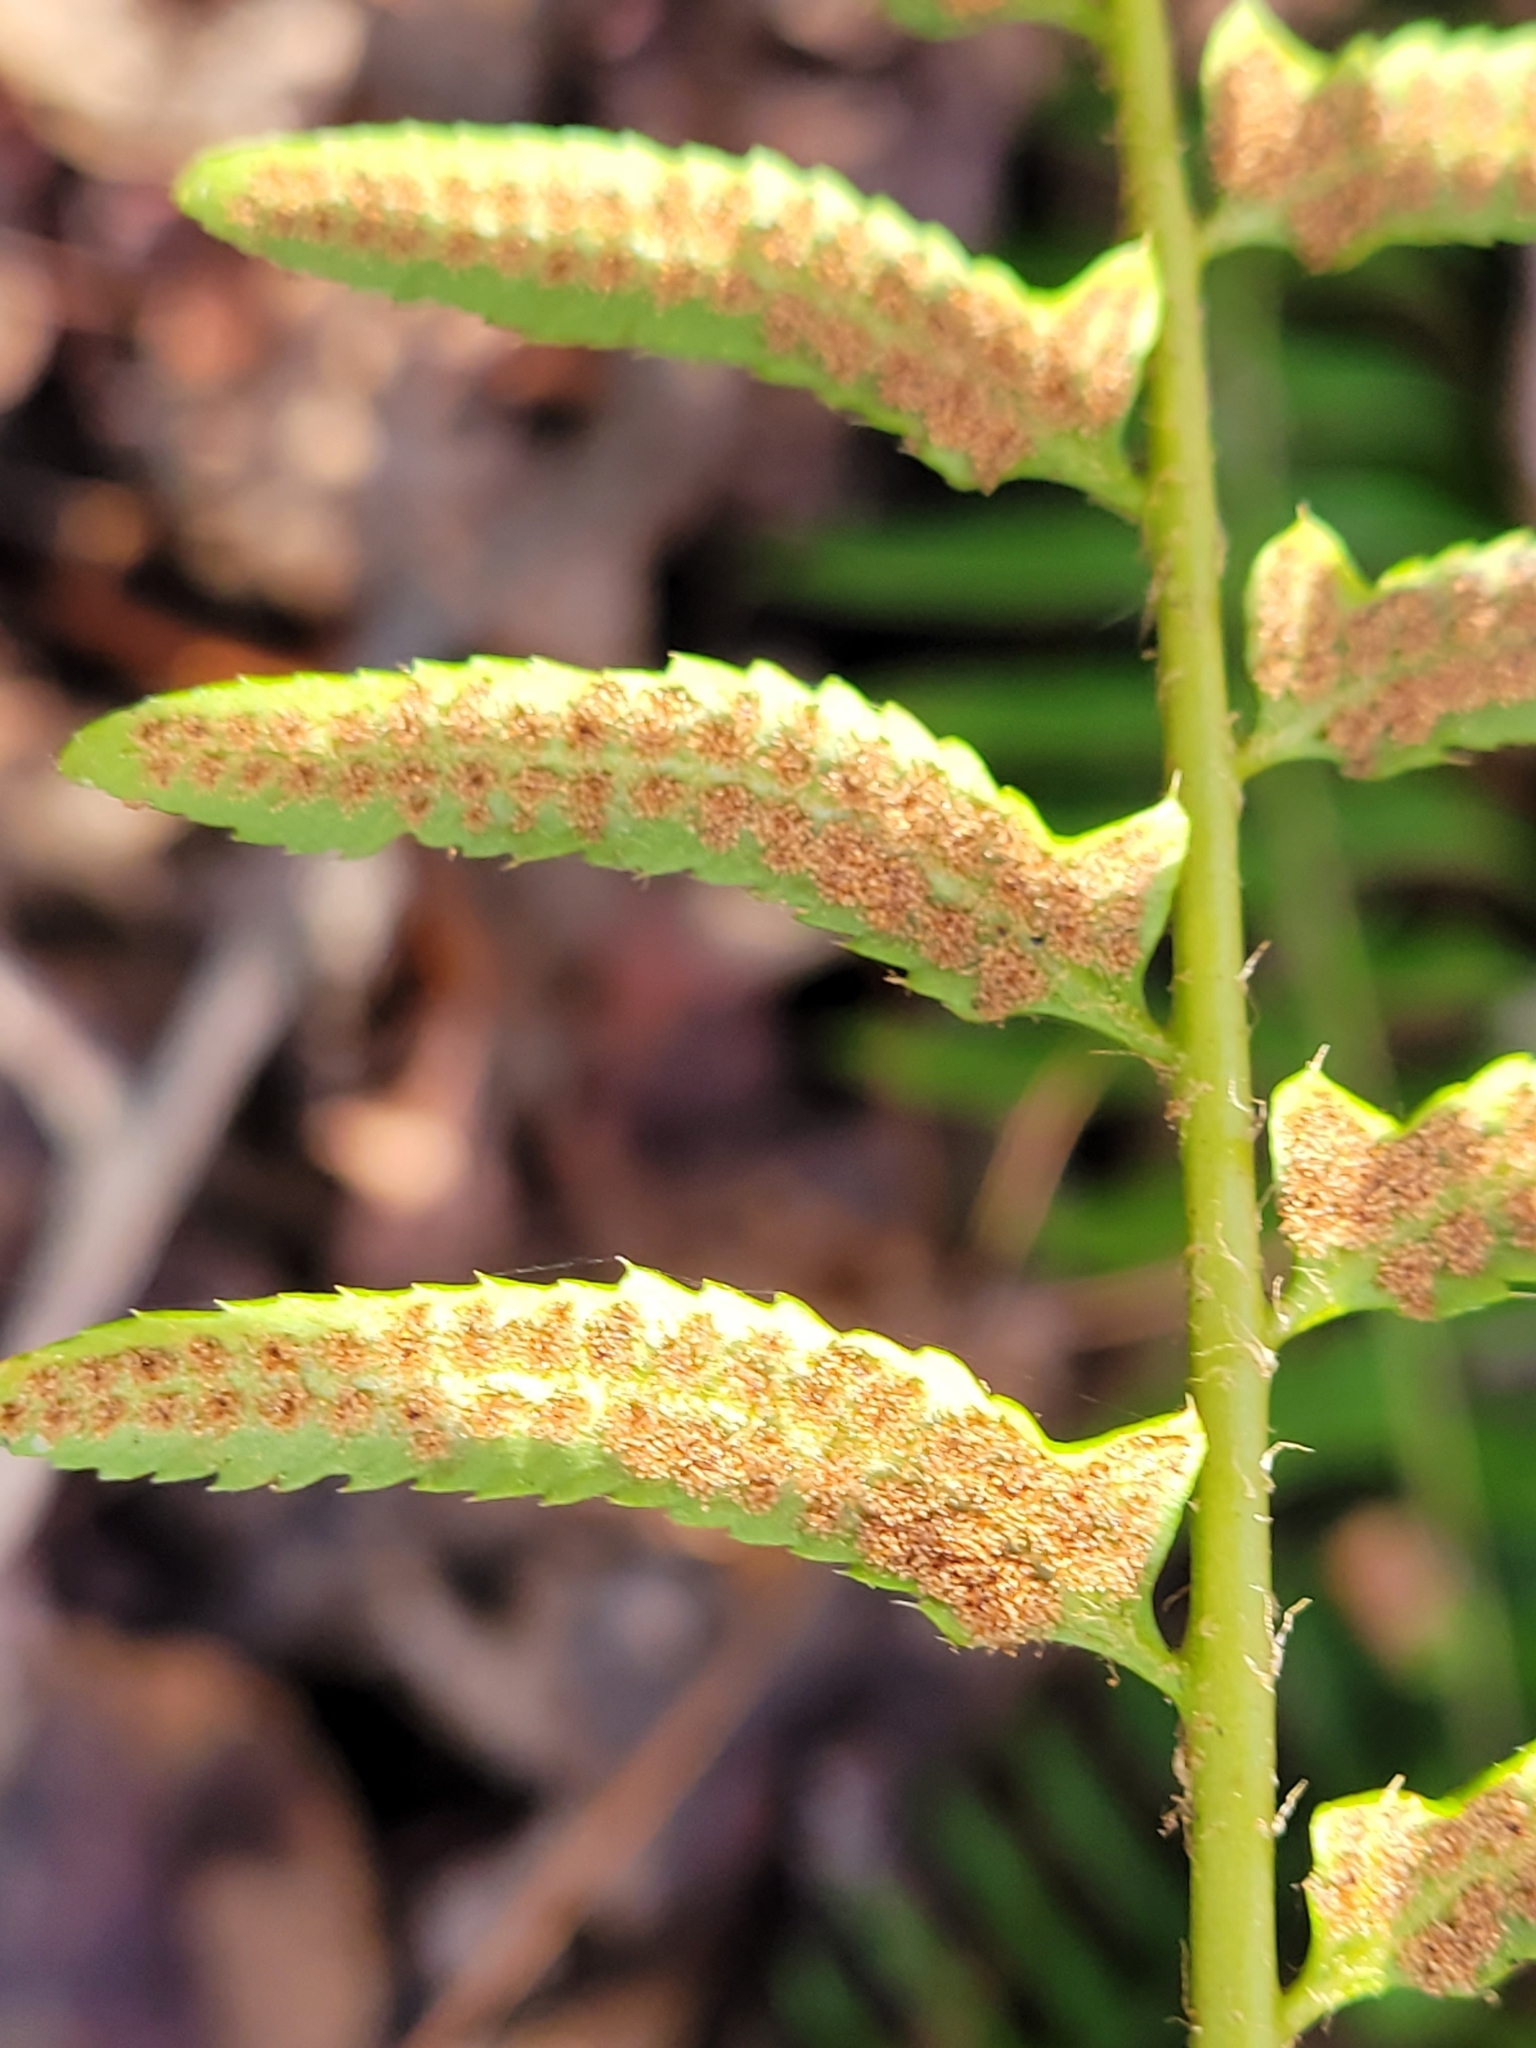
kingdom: Plantae
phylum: Tracheophyta
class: Polypodiopsida
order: Polypodiales
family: Dryopteridaceae
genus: Polystichum
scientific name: Polystichum acrostichoides
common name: Christmas fern
